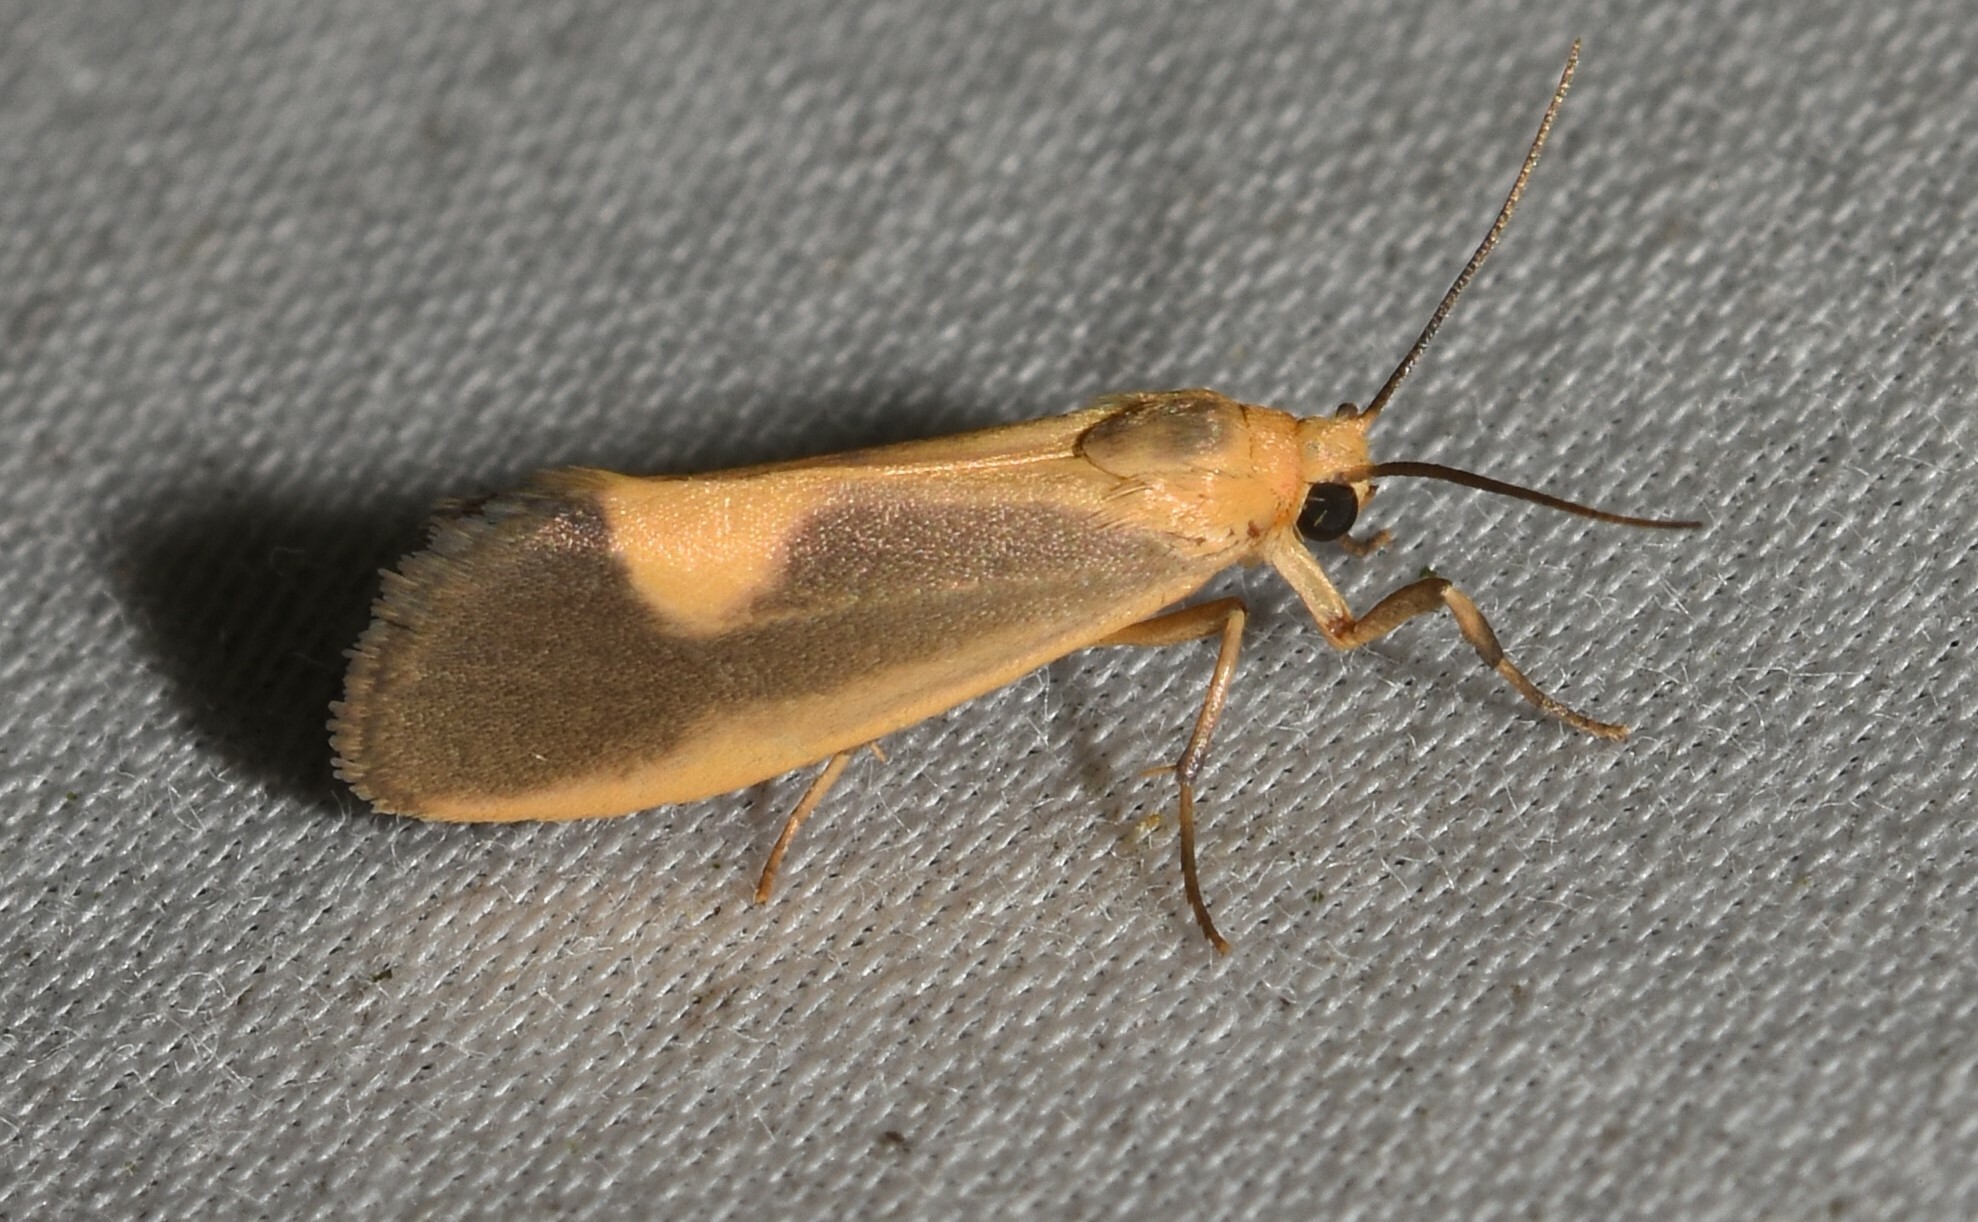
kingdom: Animalia
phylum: Arthropoda
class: Insecta
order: Lepidoptera
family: Erebidae
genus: Cisthene
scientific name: Cisthene plumbea
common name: Lead colored lichen moth
